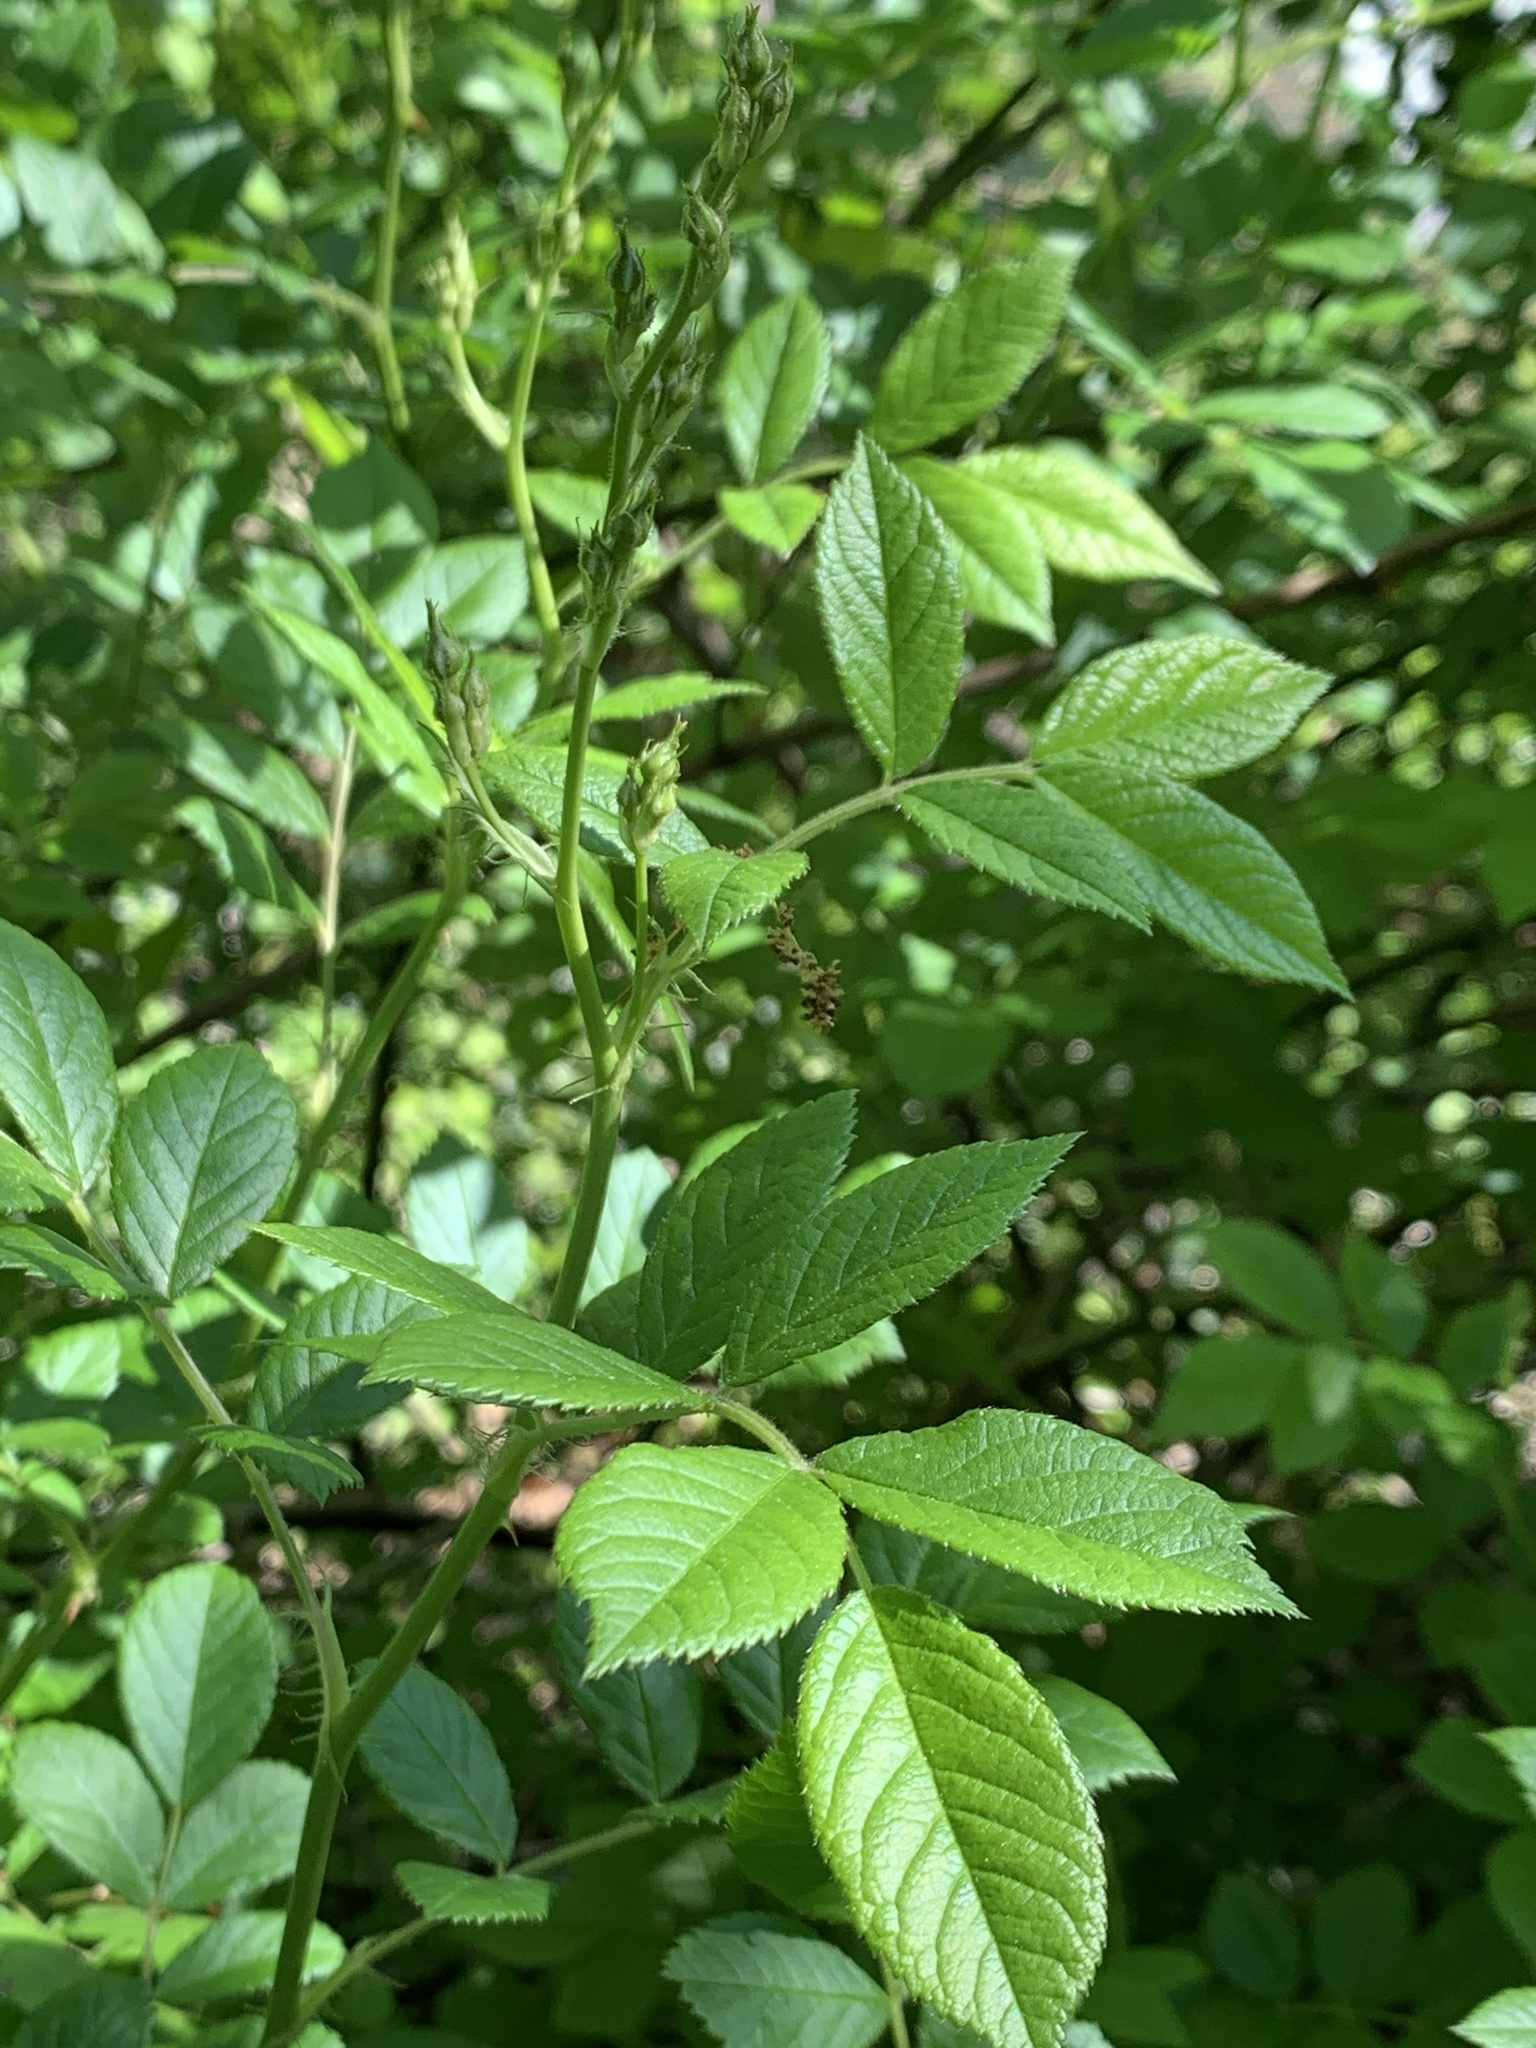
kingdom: Plantae
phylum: Tracheophyta
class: Magnoliopsida
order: Rosales
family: Rosaceae
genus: Rosa
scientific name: Rosa multiflora
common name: Multiflora rose
